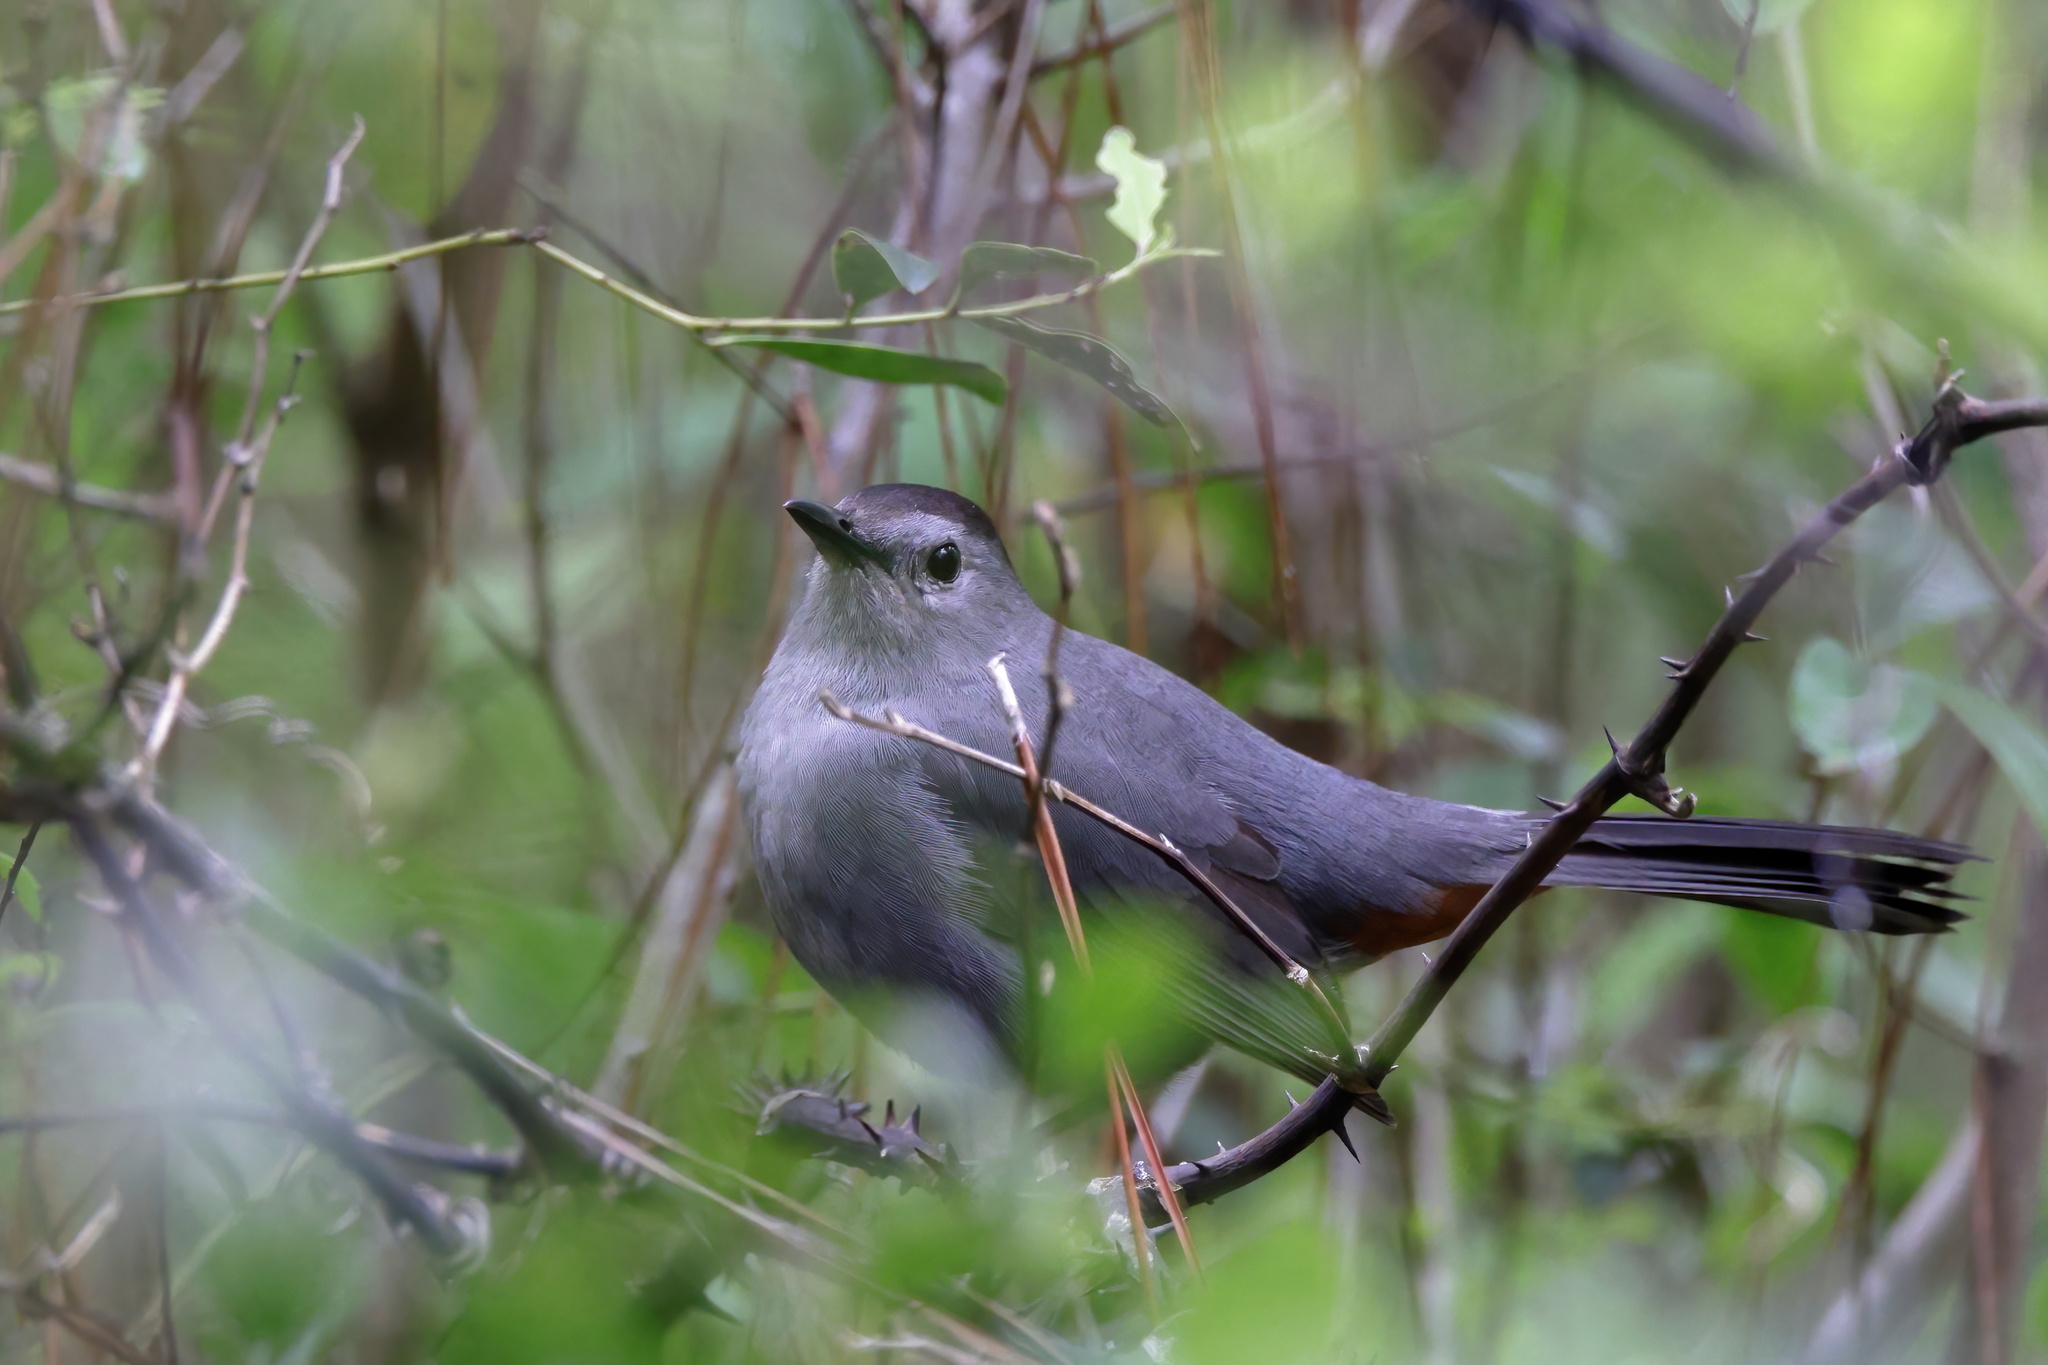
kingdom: Animalia
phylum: Chordata
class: Aves
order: Passeriformes
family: Mimidae
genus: Dumetella
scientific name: Dumetella carolinensis
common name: Gray catbird
